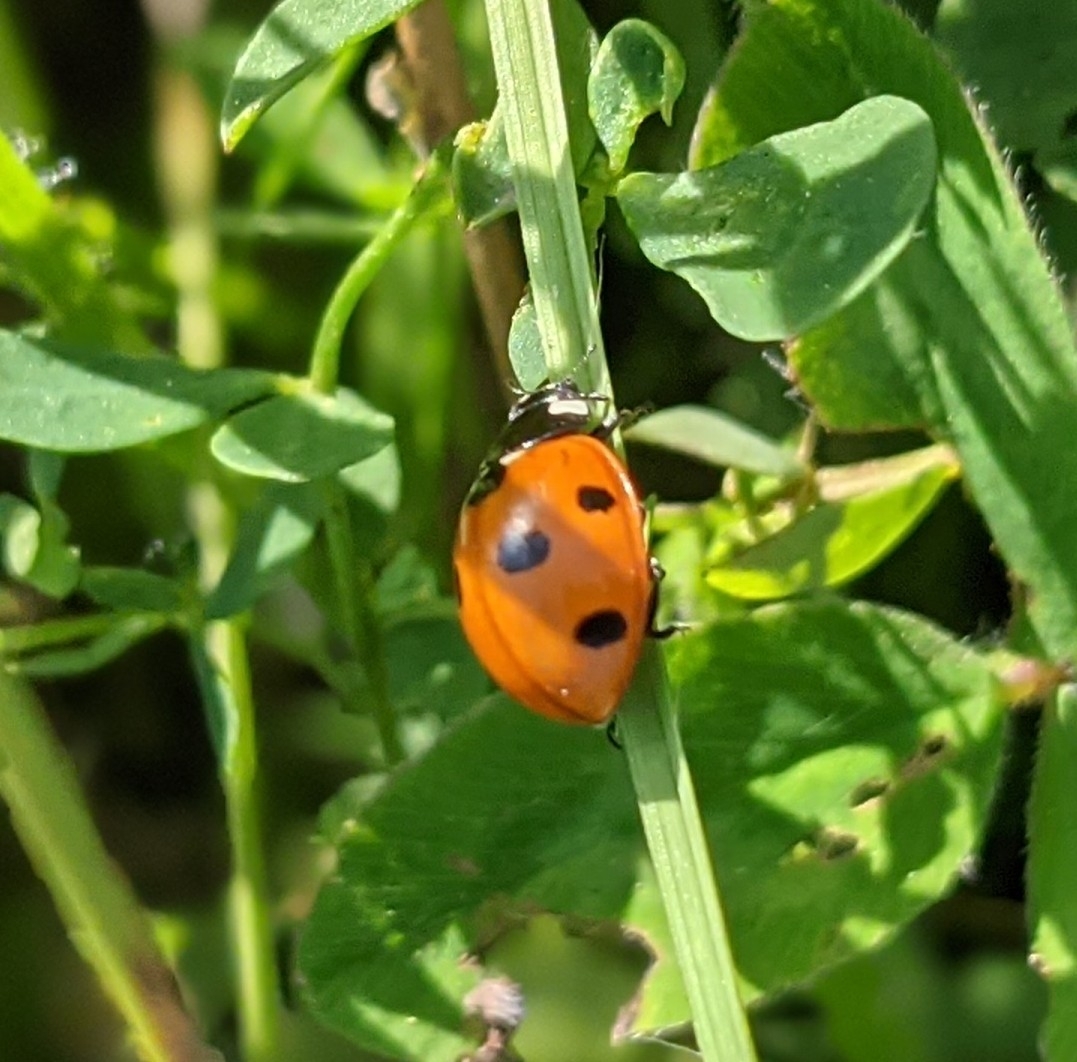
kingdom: Animalia
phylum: Arthropoda
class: Insecta
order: Coleoptera
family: Coccinellidae
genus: Coccinella
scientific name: Coccinella septempunctata
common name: Sevenspotted lady beetle
